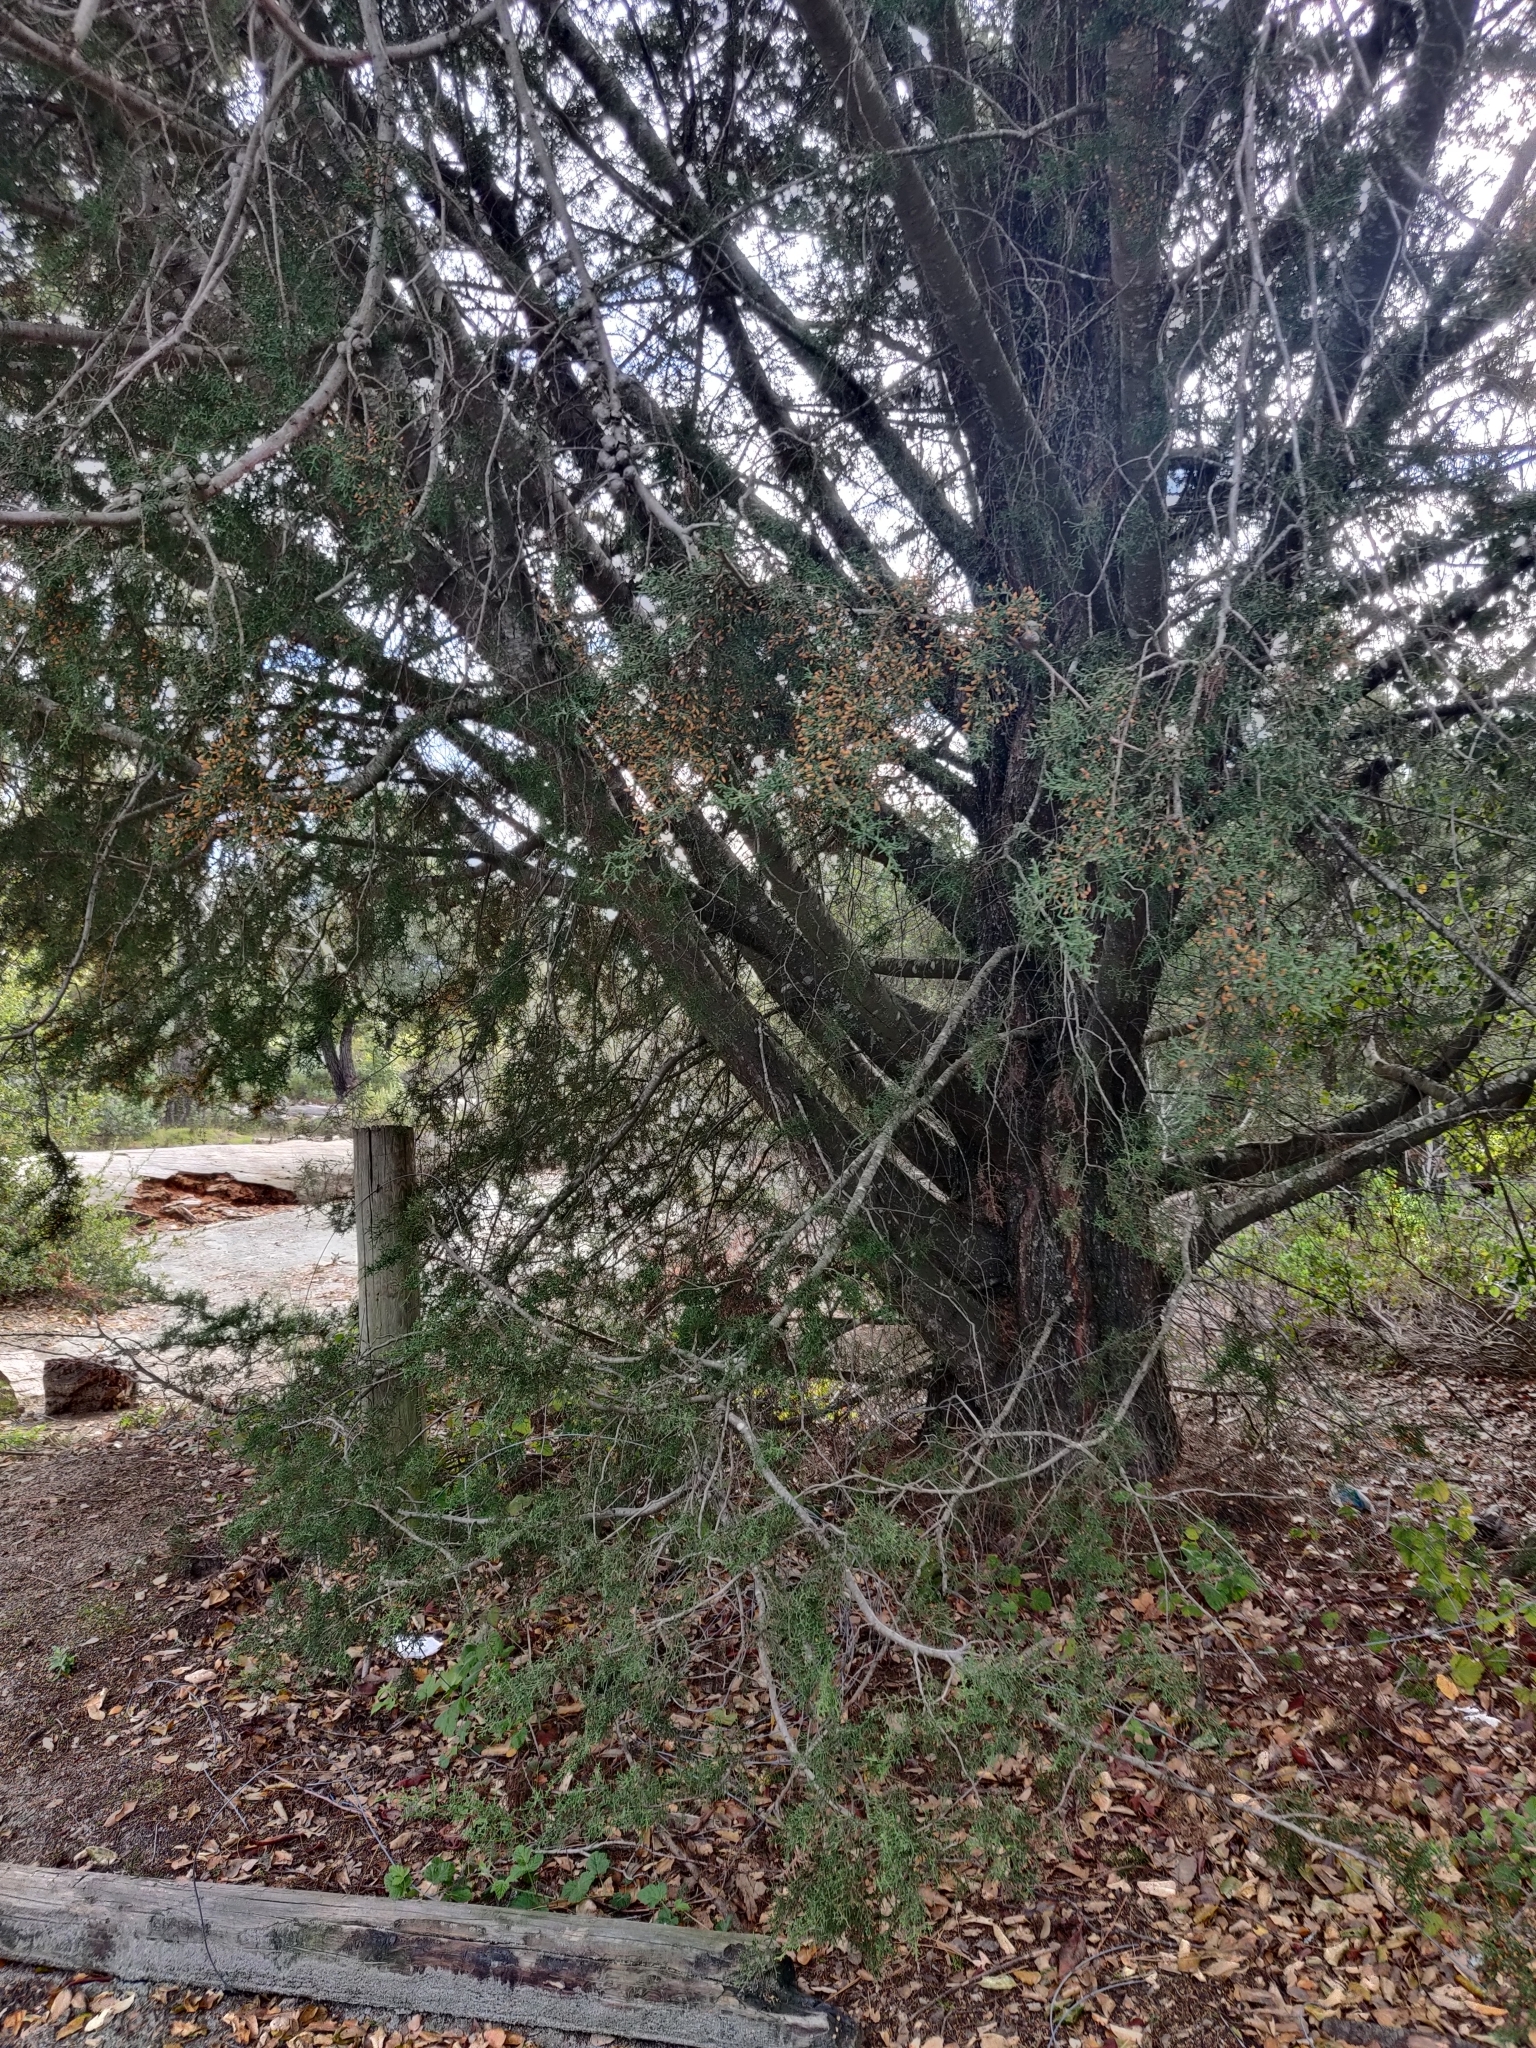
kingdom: Plantae
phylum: Tracheophyta
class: Pinopsida
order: Pinales
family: Cupressaceae
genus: Cupressus
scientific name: Cupressus goveniana
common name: Gowen cypress
